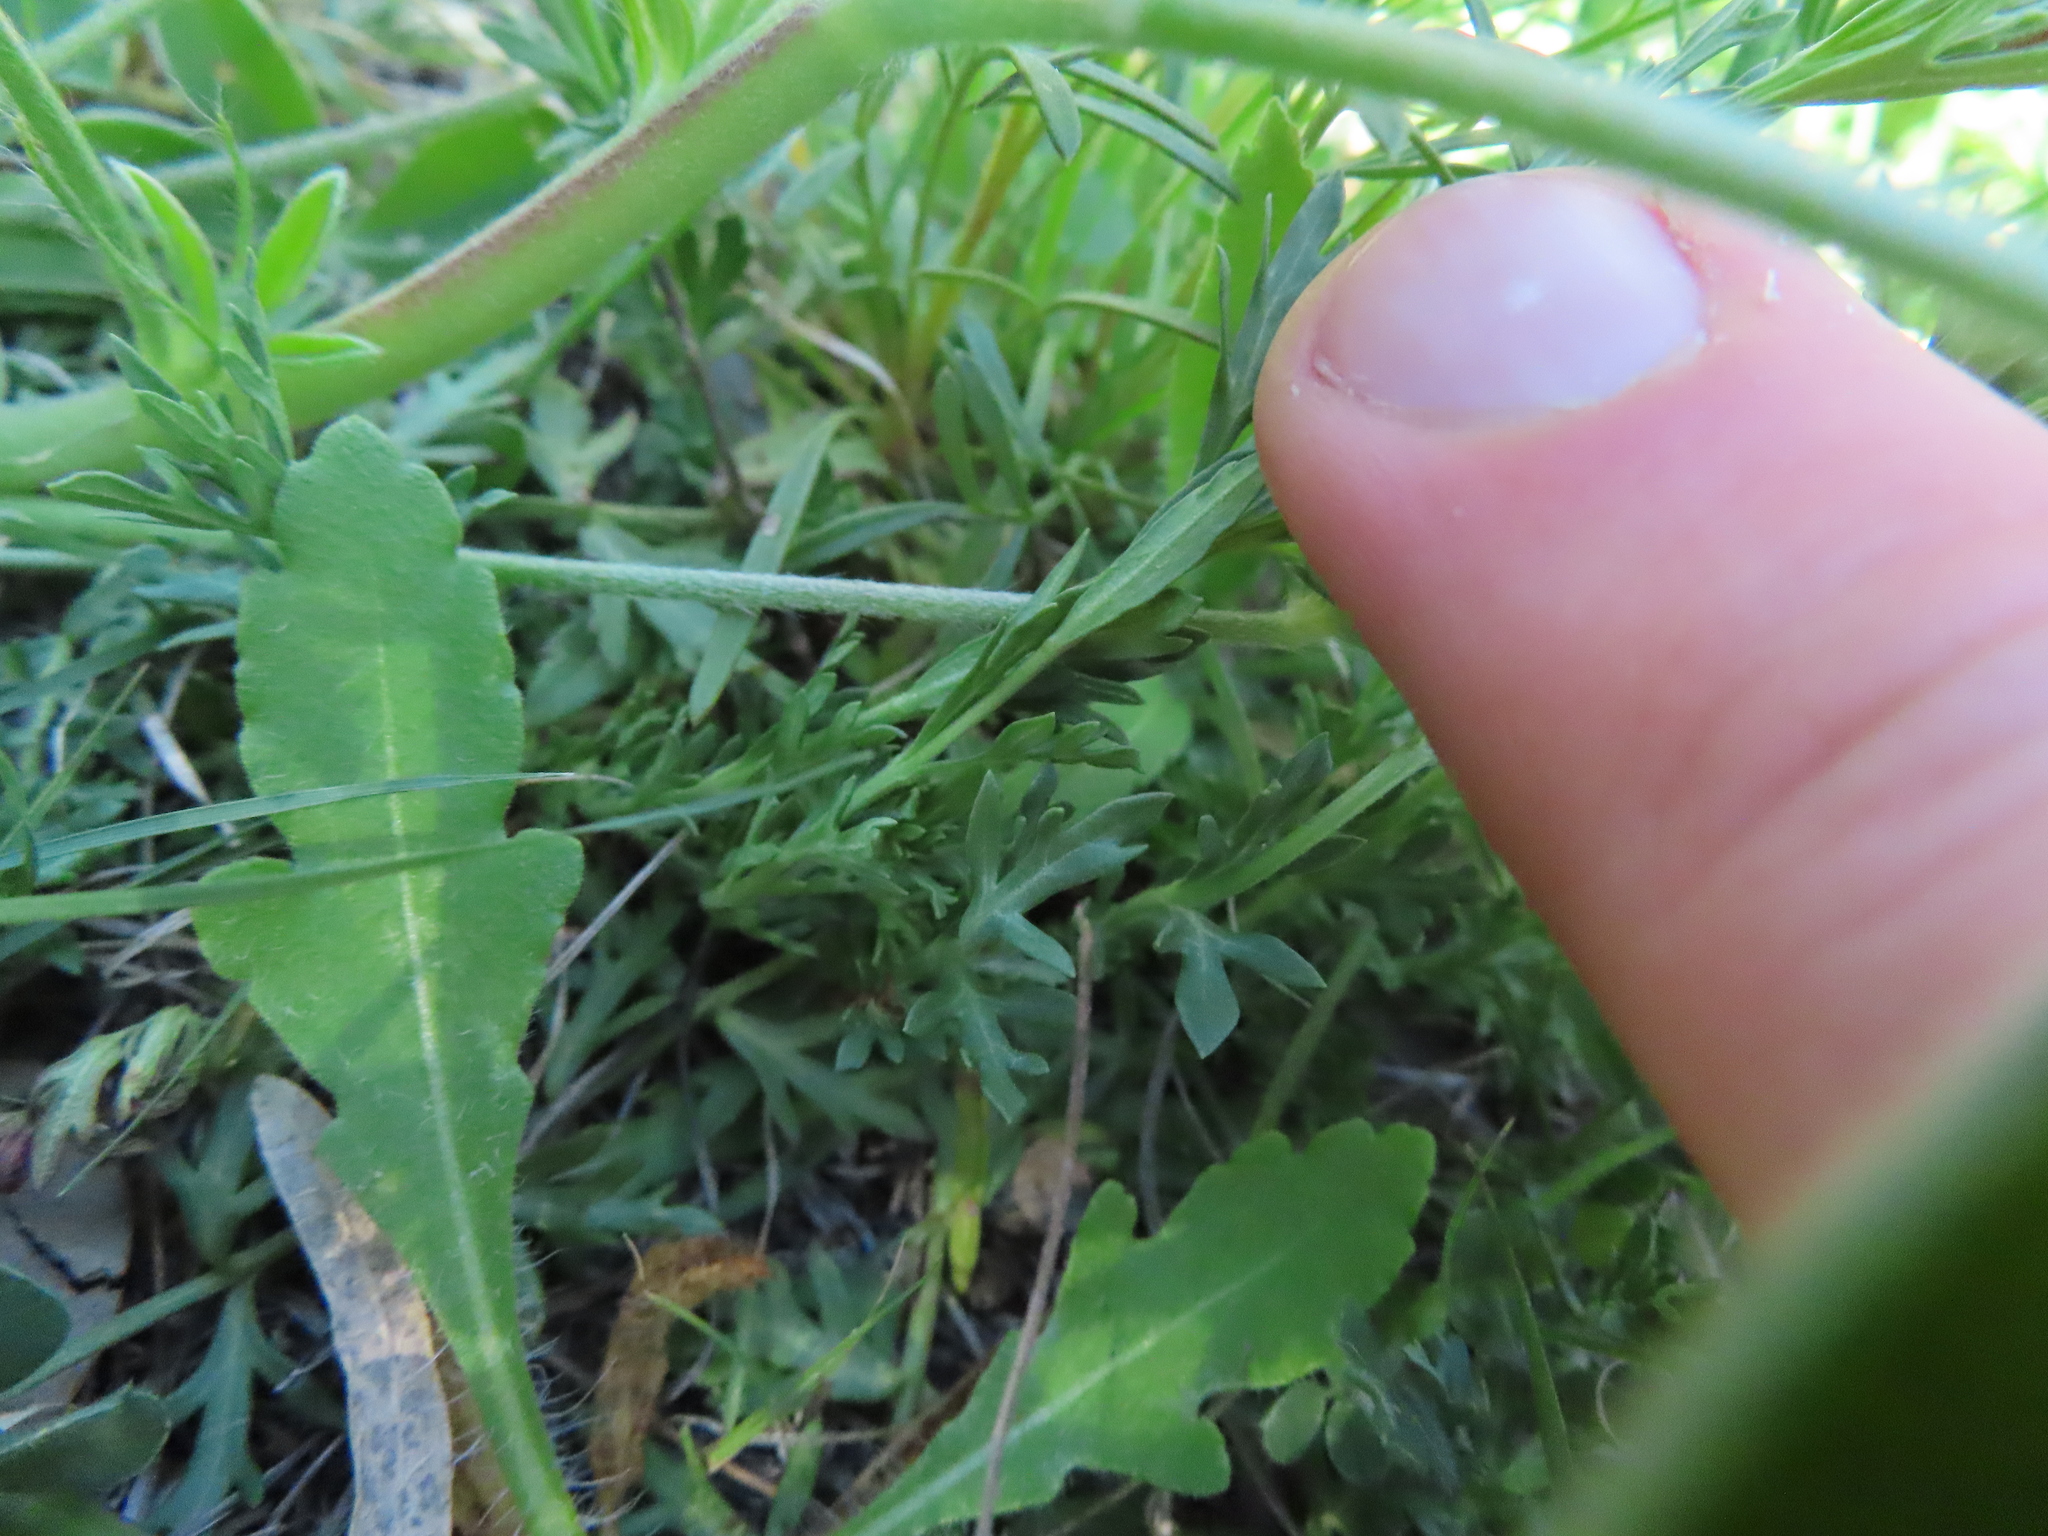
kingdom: Plantae
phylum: Tracheophyta
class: Magnoliopsida
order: Lamiales
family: Oleaceae
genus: Menodora
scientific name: Menodora heterophylla
